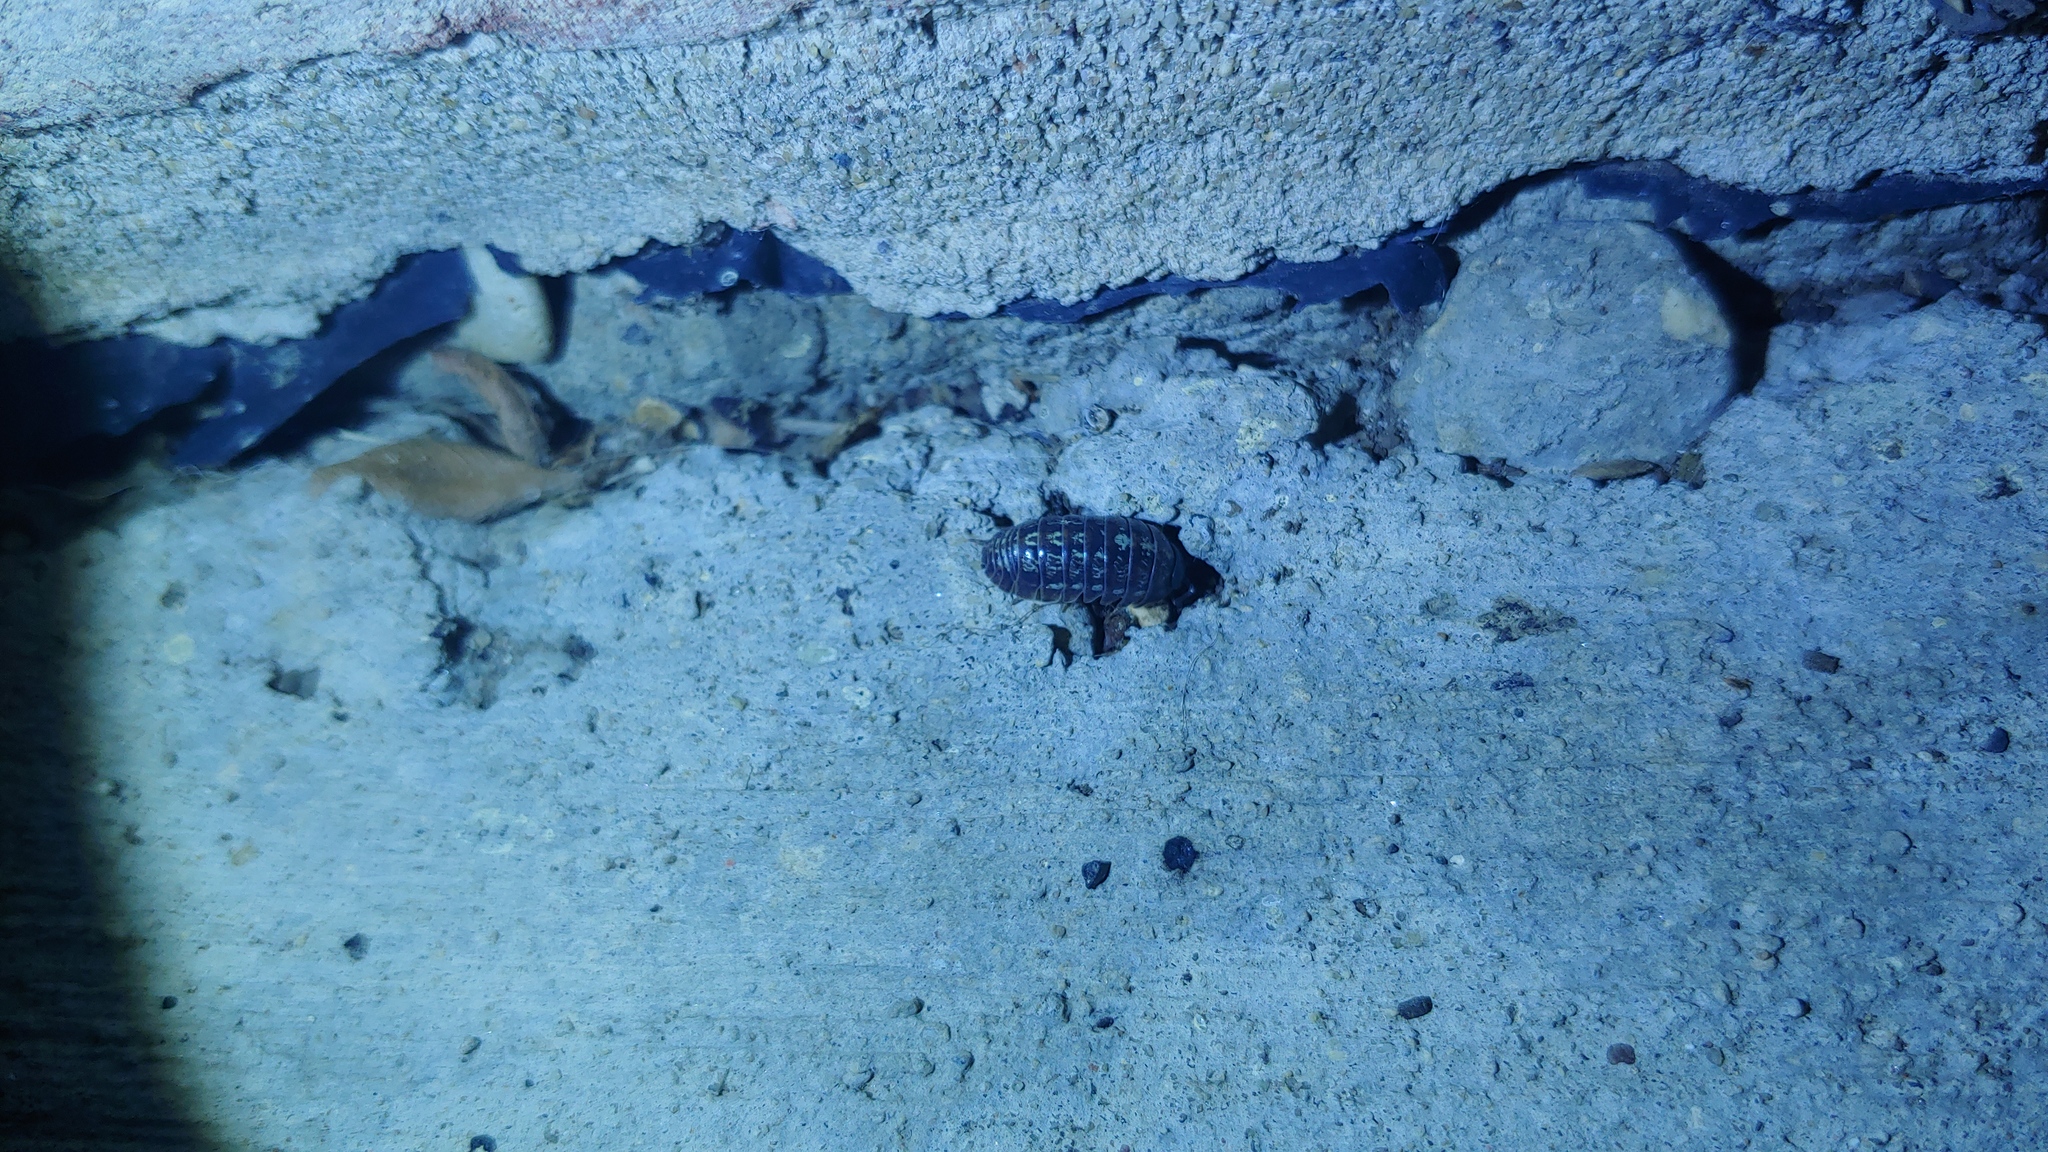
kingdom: Animalia
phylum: Arthropoda
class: Malacostraca
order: Isopoda
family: Armadillidiidae
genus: Armadillidium
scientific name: Armadillidium vulgare
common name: Common pill woodlouse
